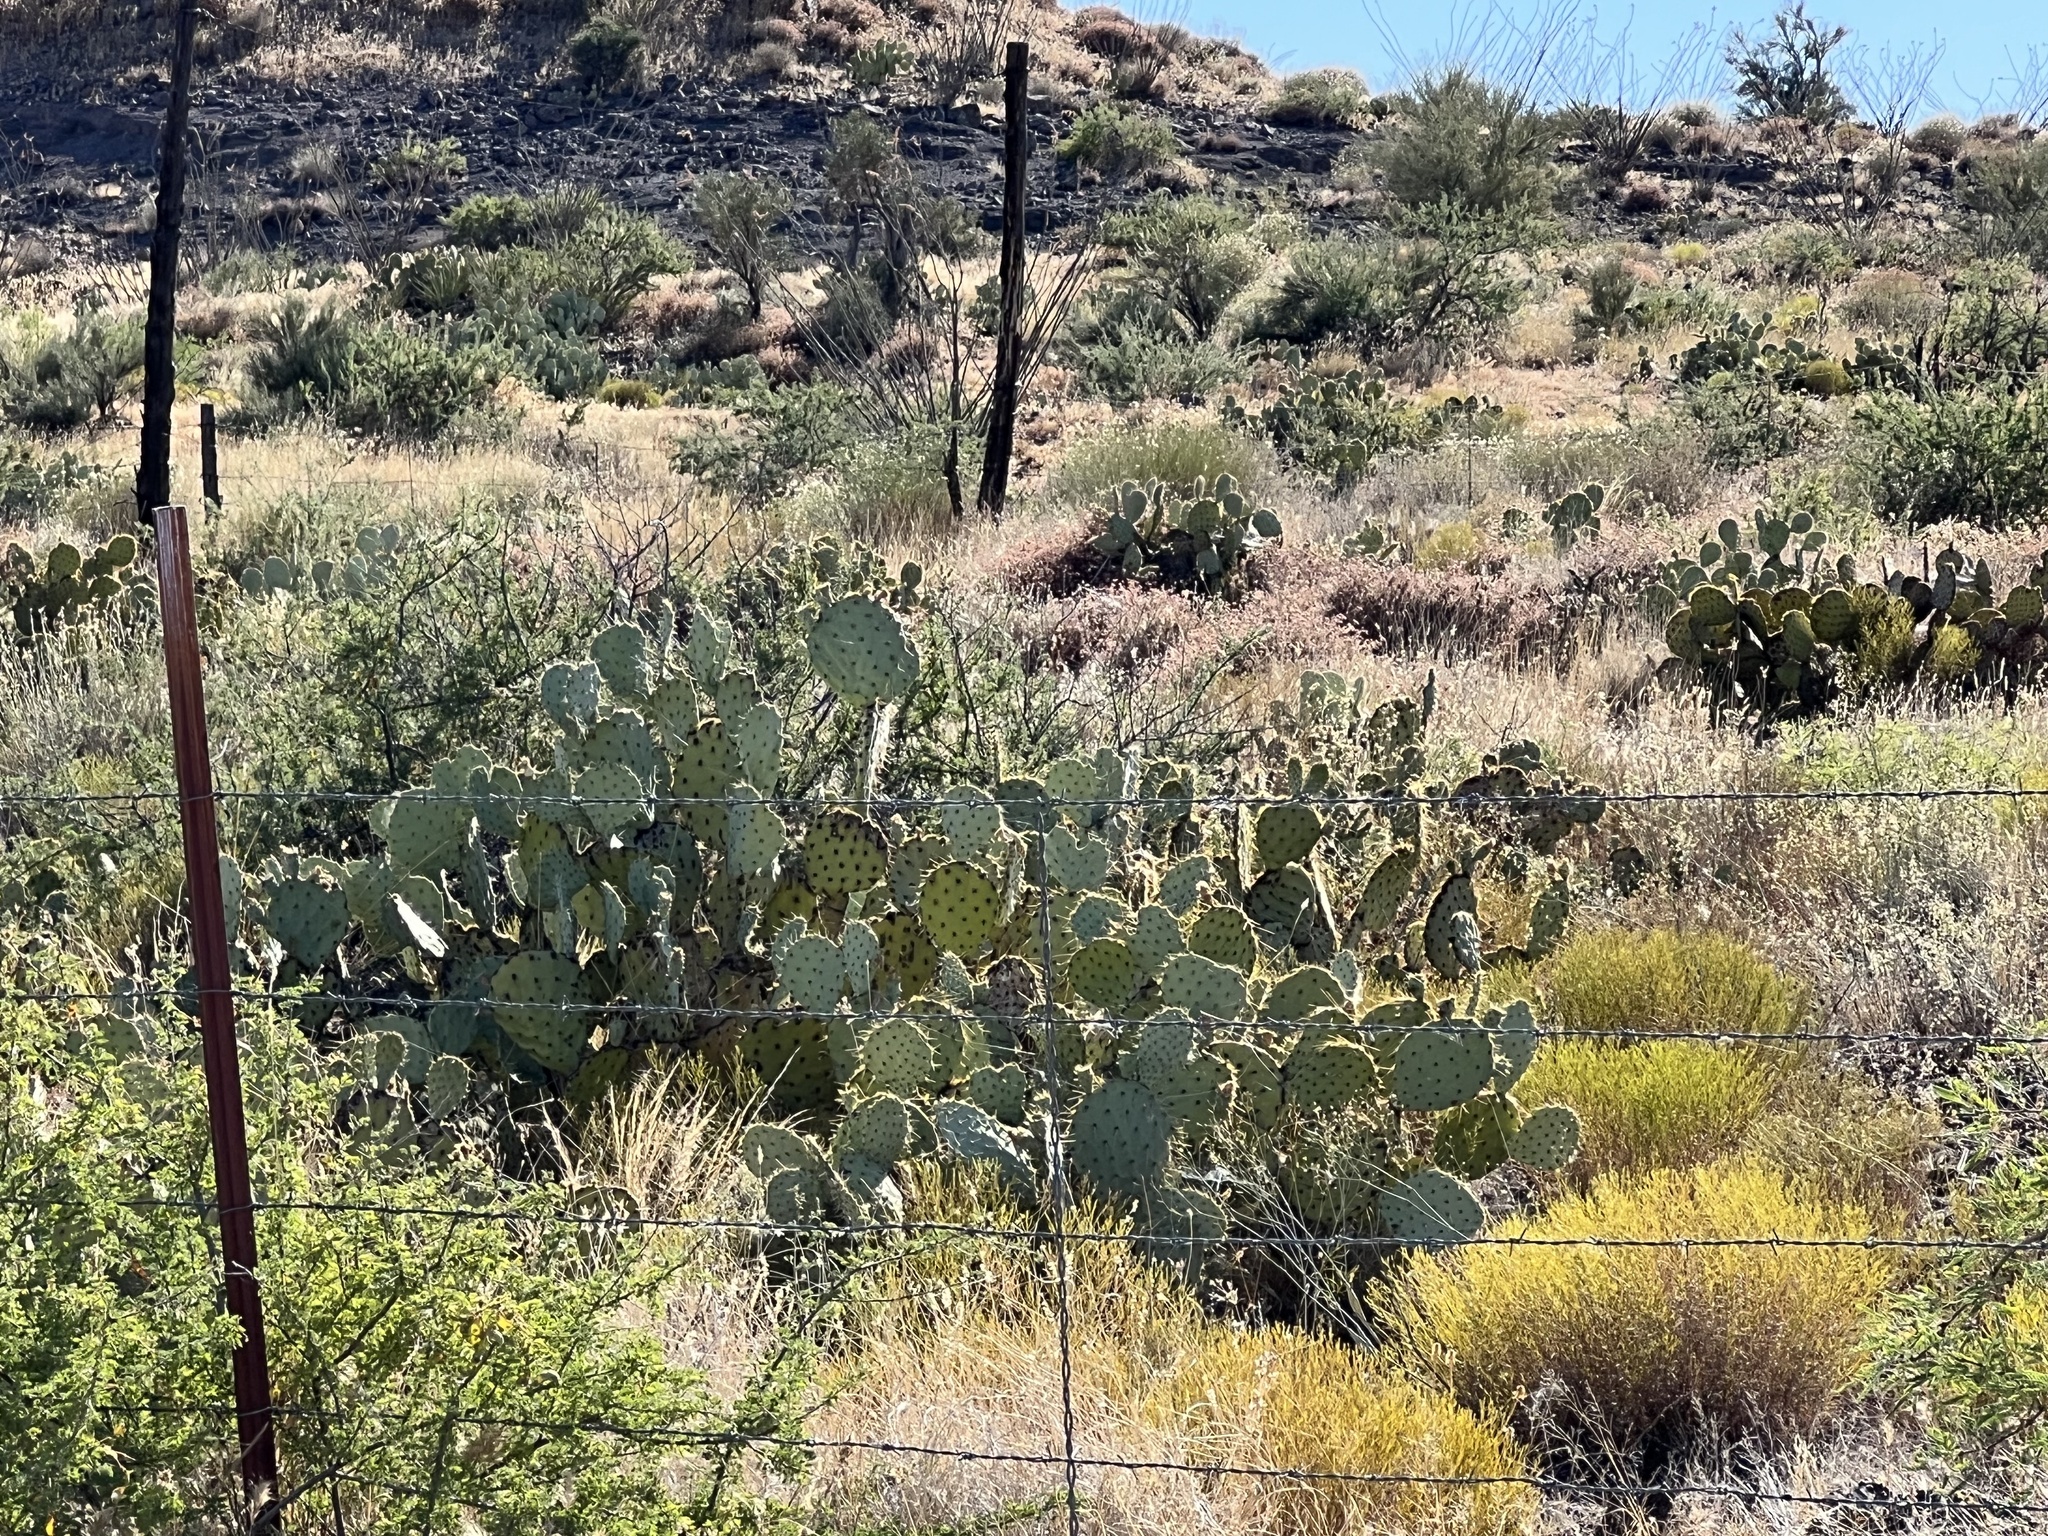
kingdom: Plantae
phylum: Tracheophyta
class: Magnoliopsida
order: Caryophyllales
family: Cactaceae
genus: Opuntia
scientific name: Opuntia engelmannii
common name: Cactus-apple
